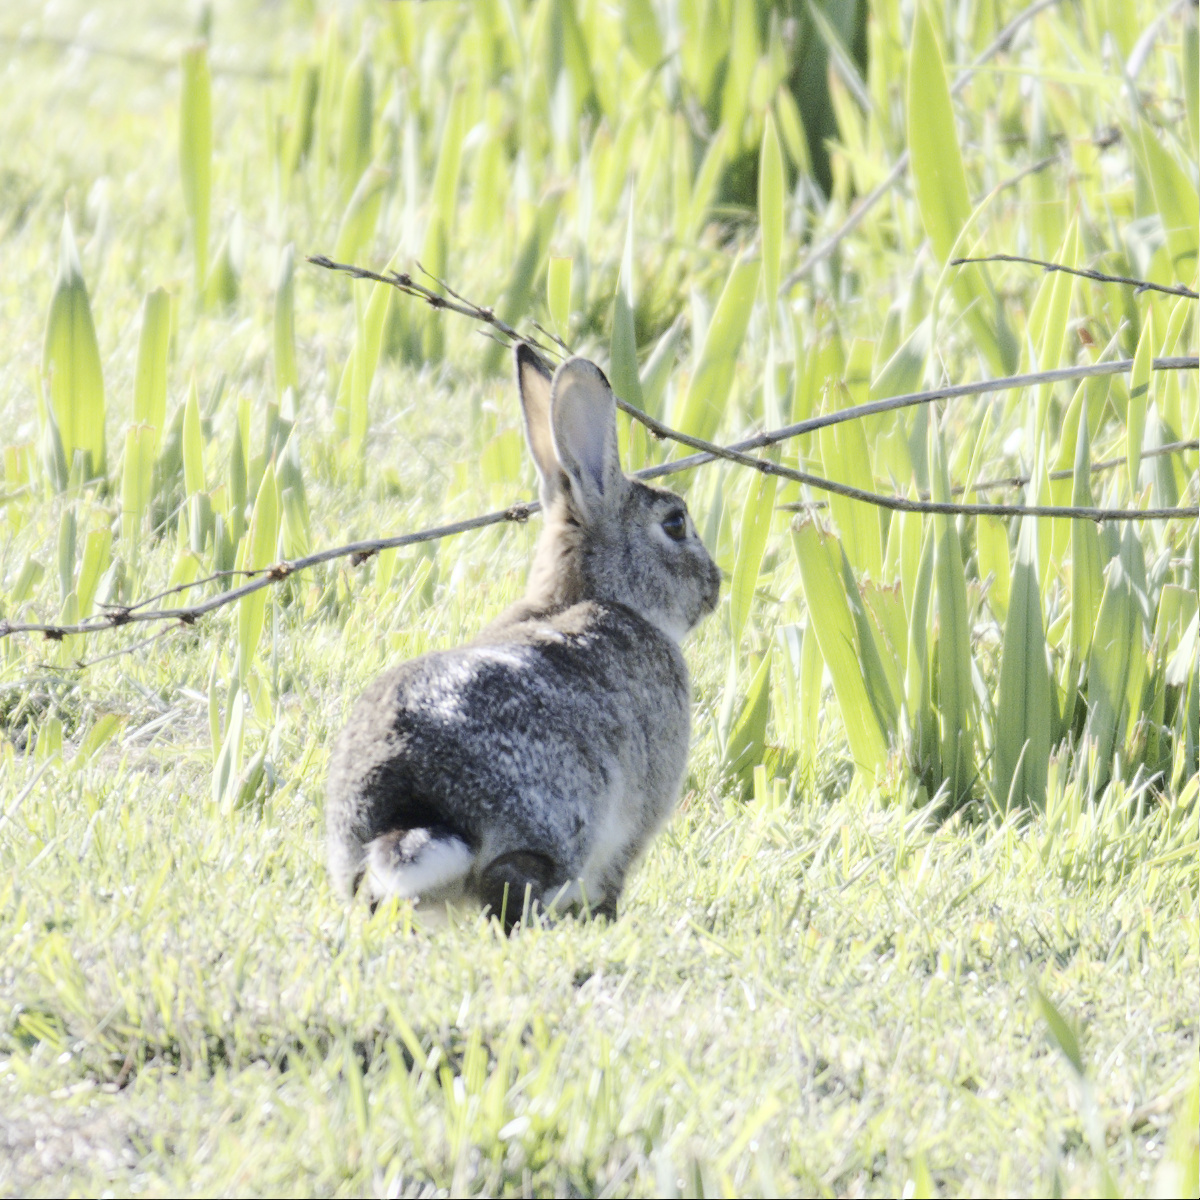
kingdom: Animalia
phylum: Chordata
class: Mammalia
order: Lagomorpha
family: Leporidae
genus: Oryctolagus
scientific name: Oryctolagus cuniculus
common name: European rabbit
